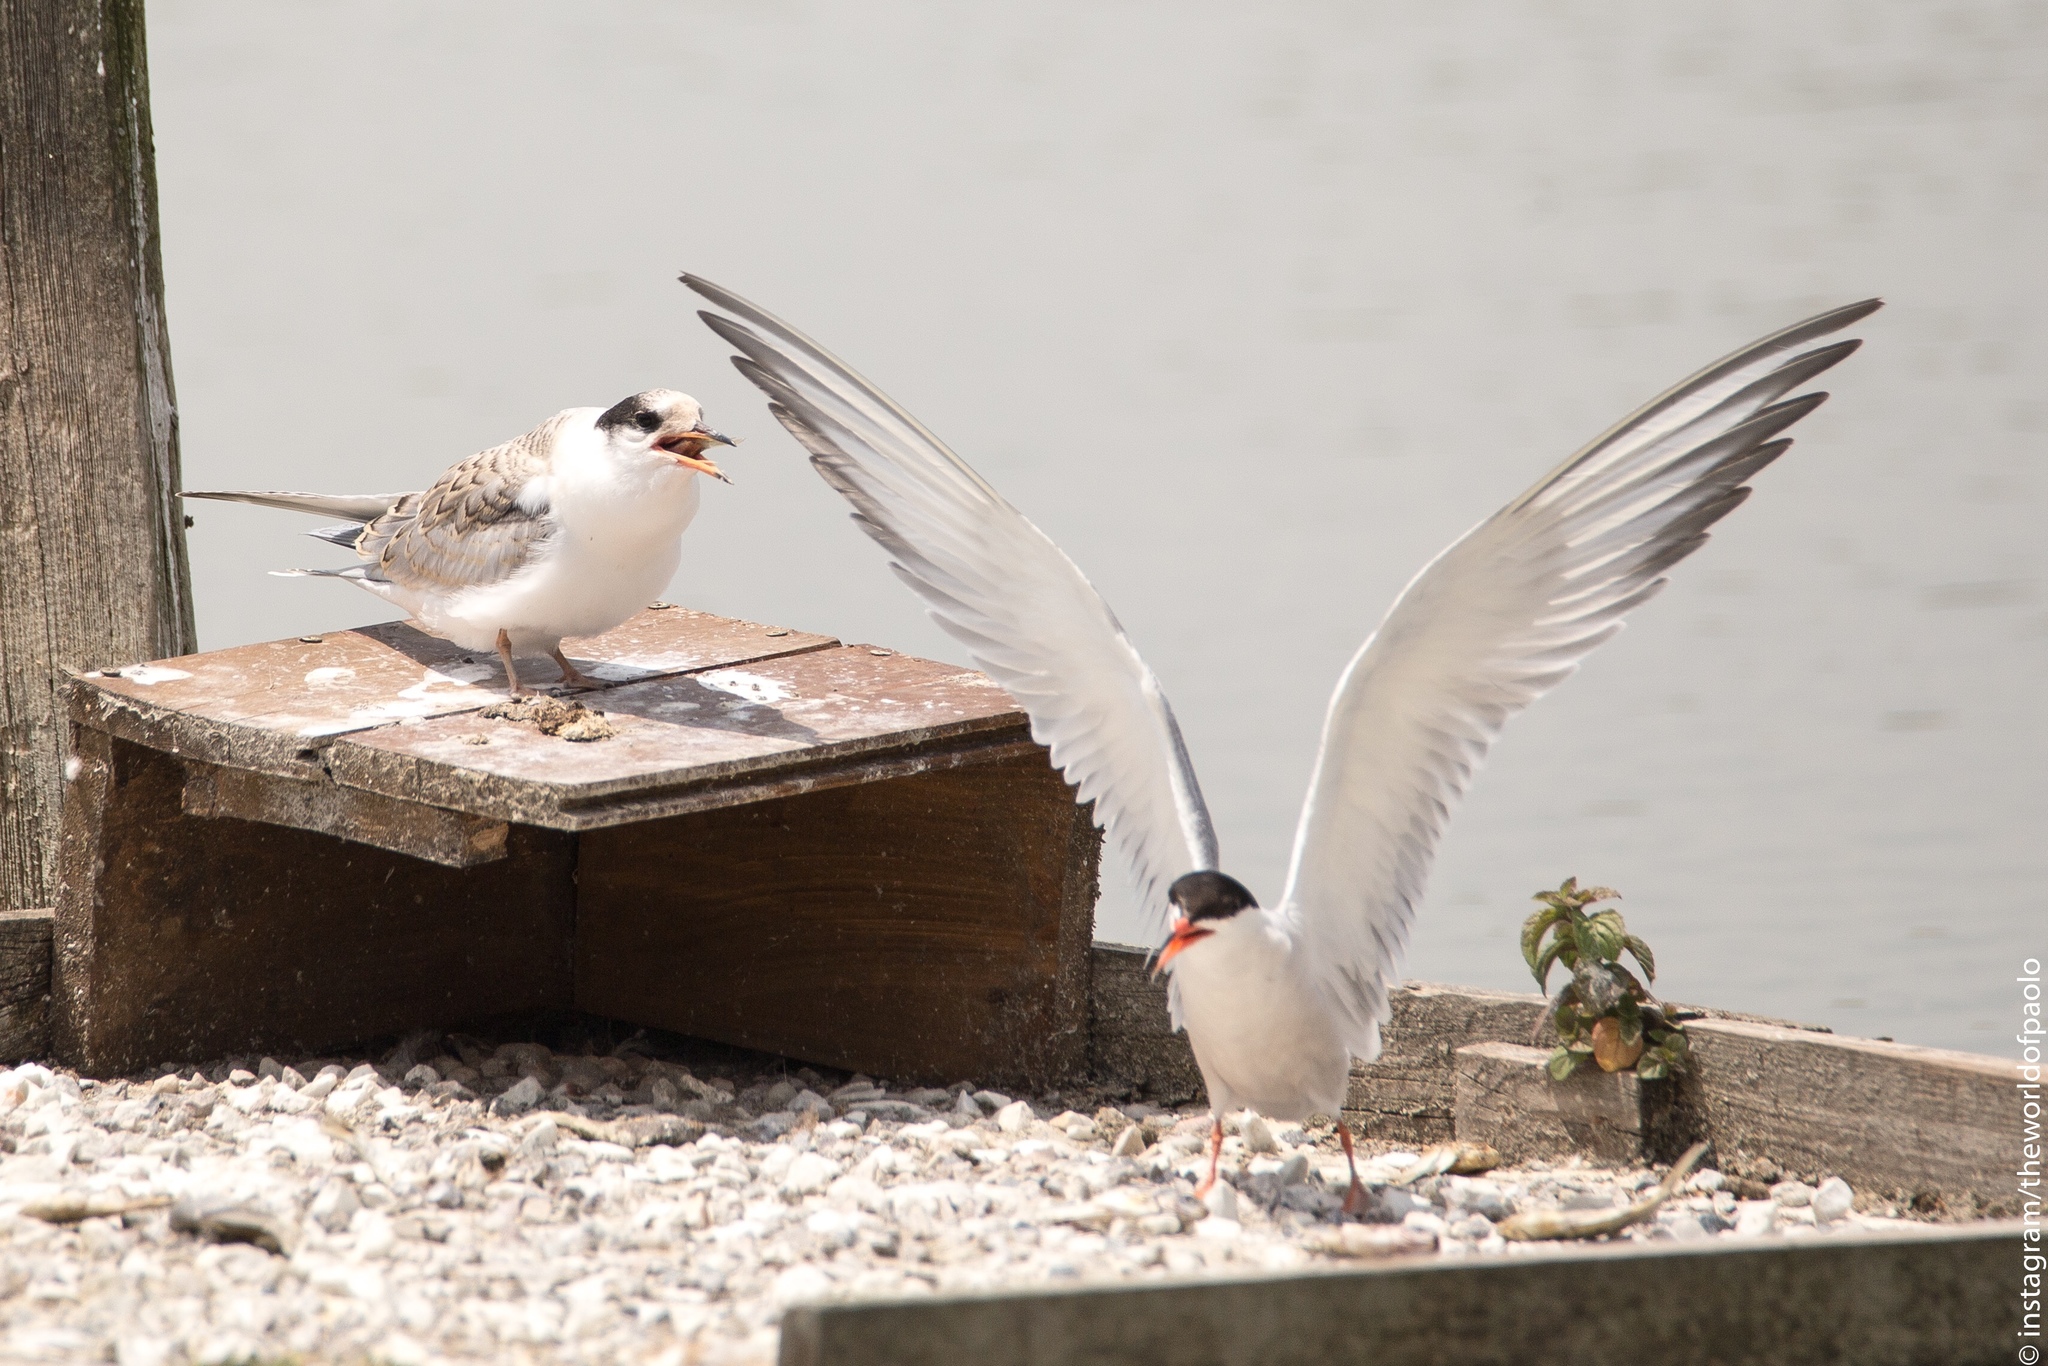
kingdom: Animalia
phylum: Chordata
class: Aves
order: Charadriiformes
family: Laridae
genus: Sterna
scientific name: Sterna hirundo
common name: Common tern
